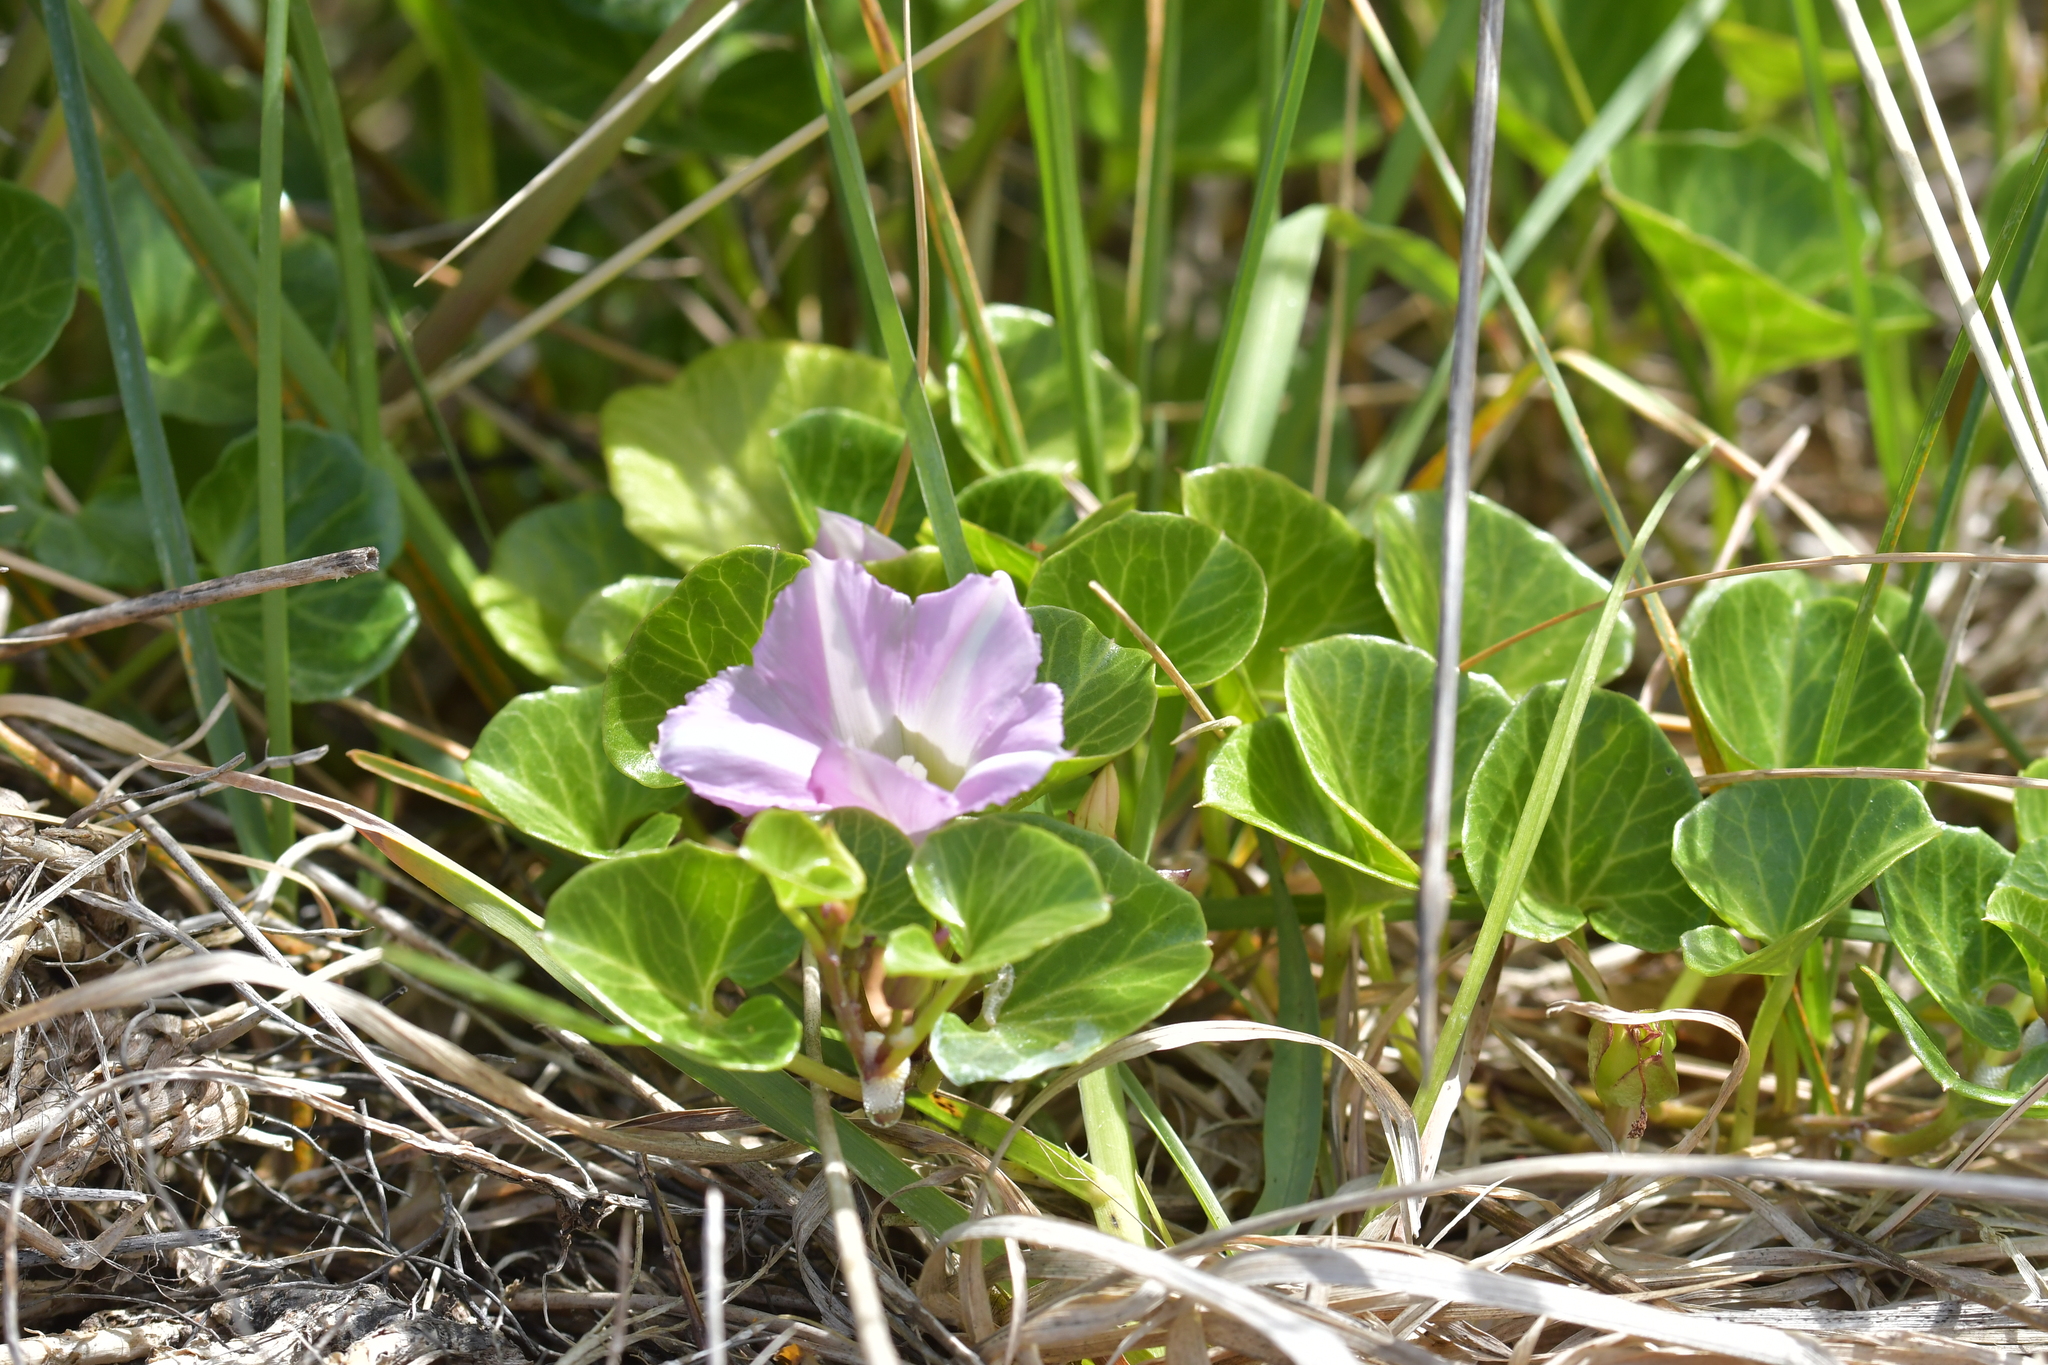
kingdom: Plantae
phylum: Tracheophyta
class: Magnoliopsida
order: Solanales
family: Convolvulaceae
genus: Calystegia
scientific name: Calystegia soldanella
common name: Sea bindweed
